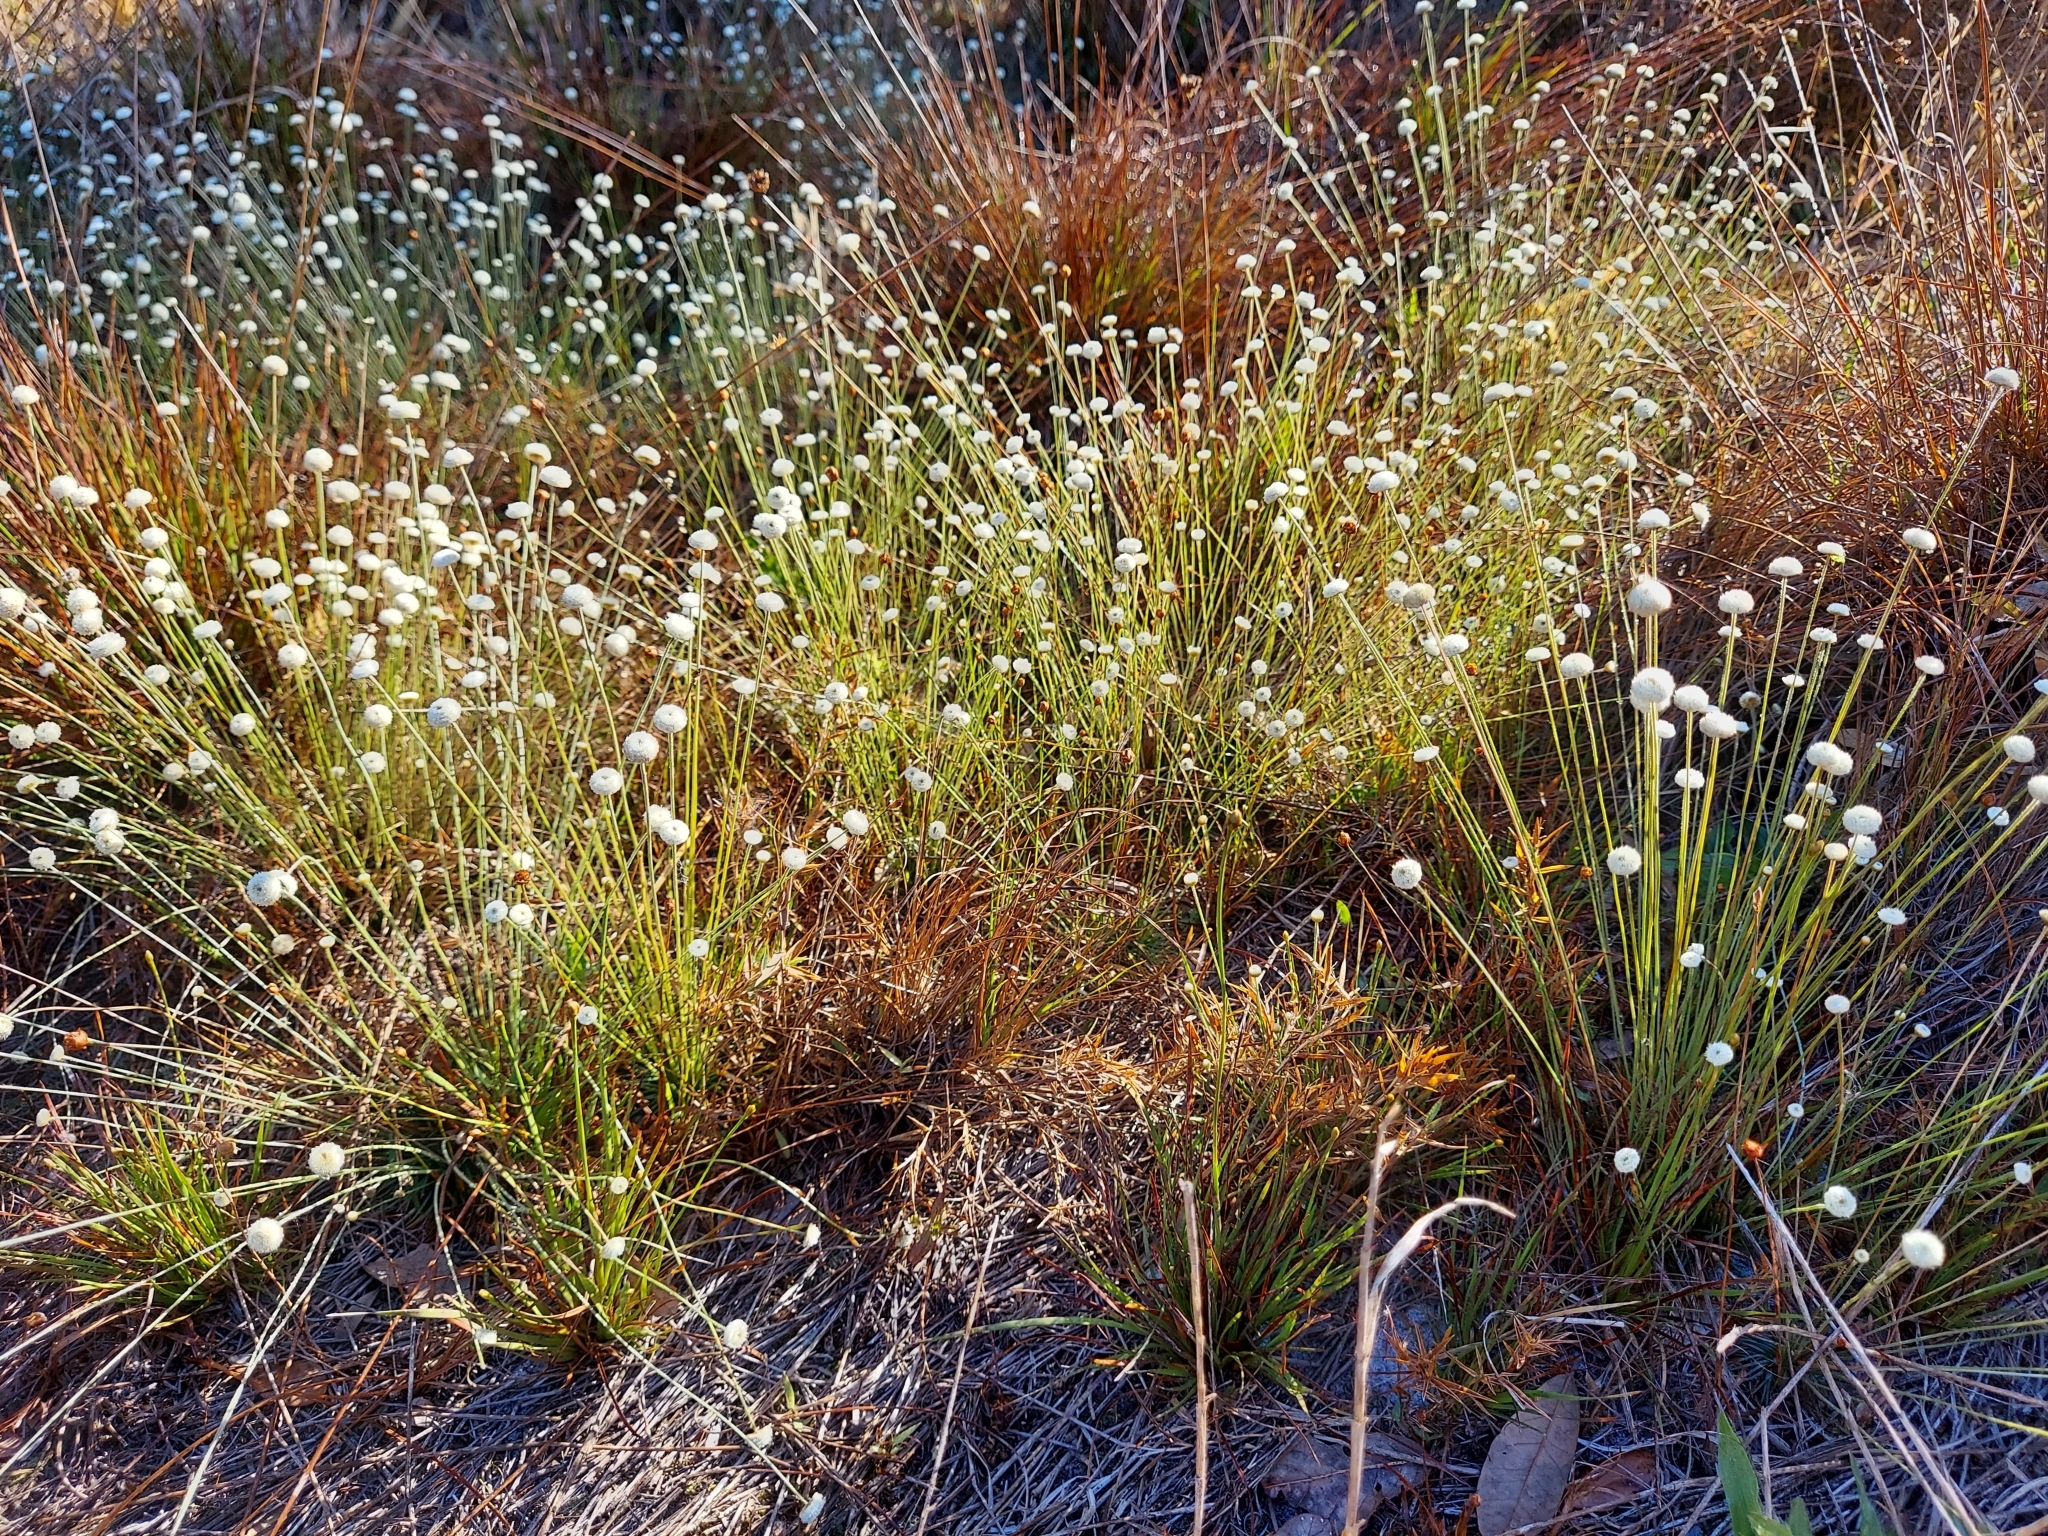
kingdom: Plantae
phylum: Tracheophyta
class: Liliopsida
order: Poales
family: Eriocaulaceae
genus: Syngonanthus
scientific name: Syngonanthus flavidulus
